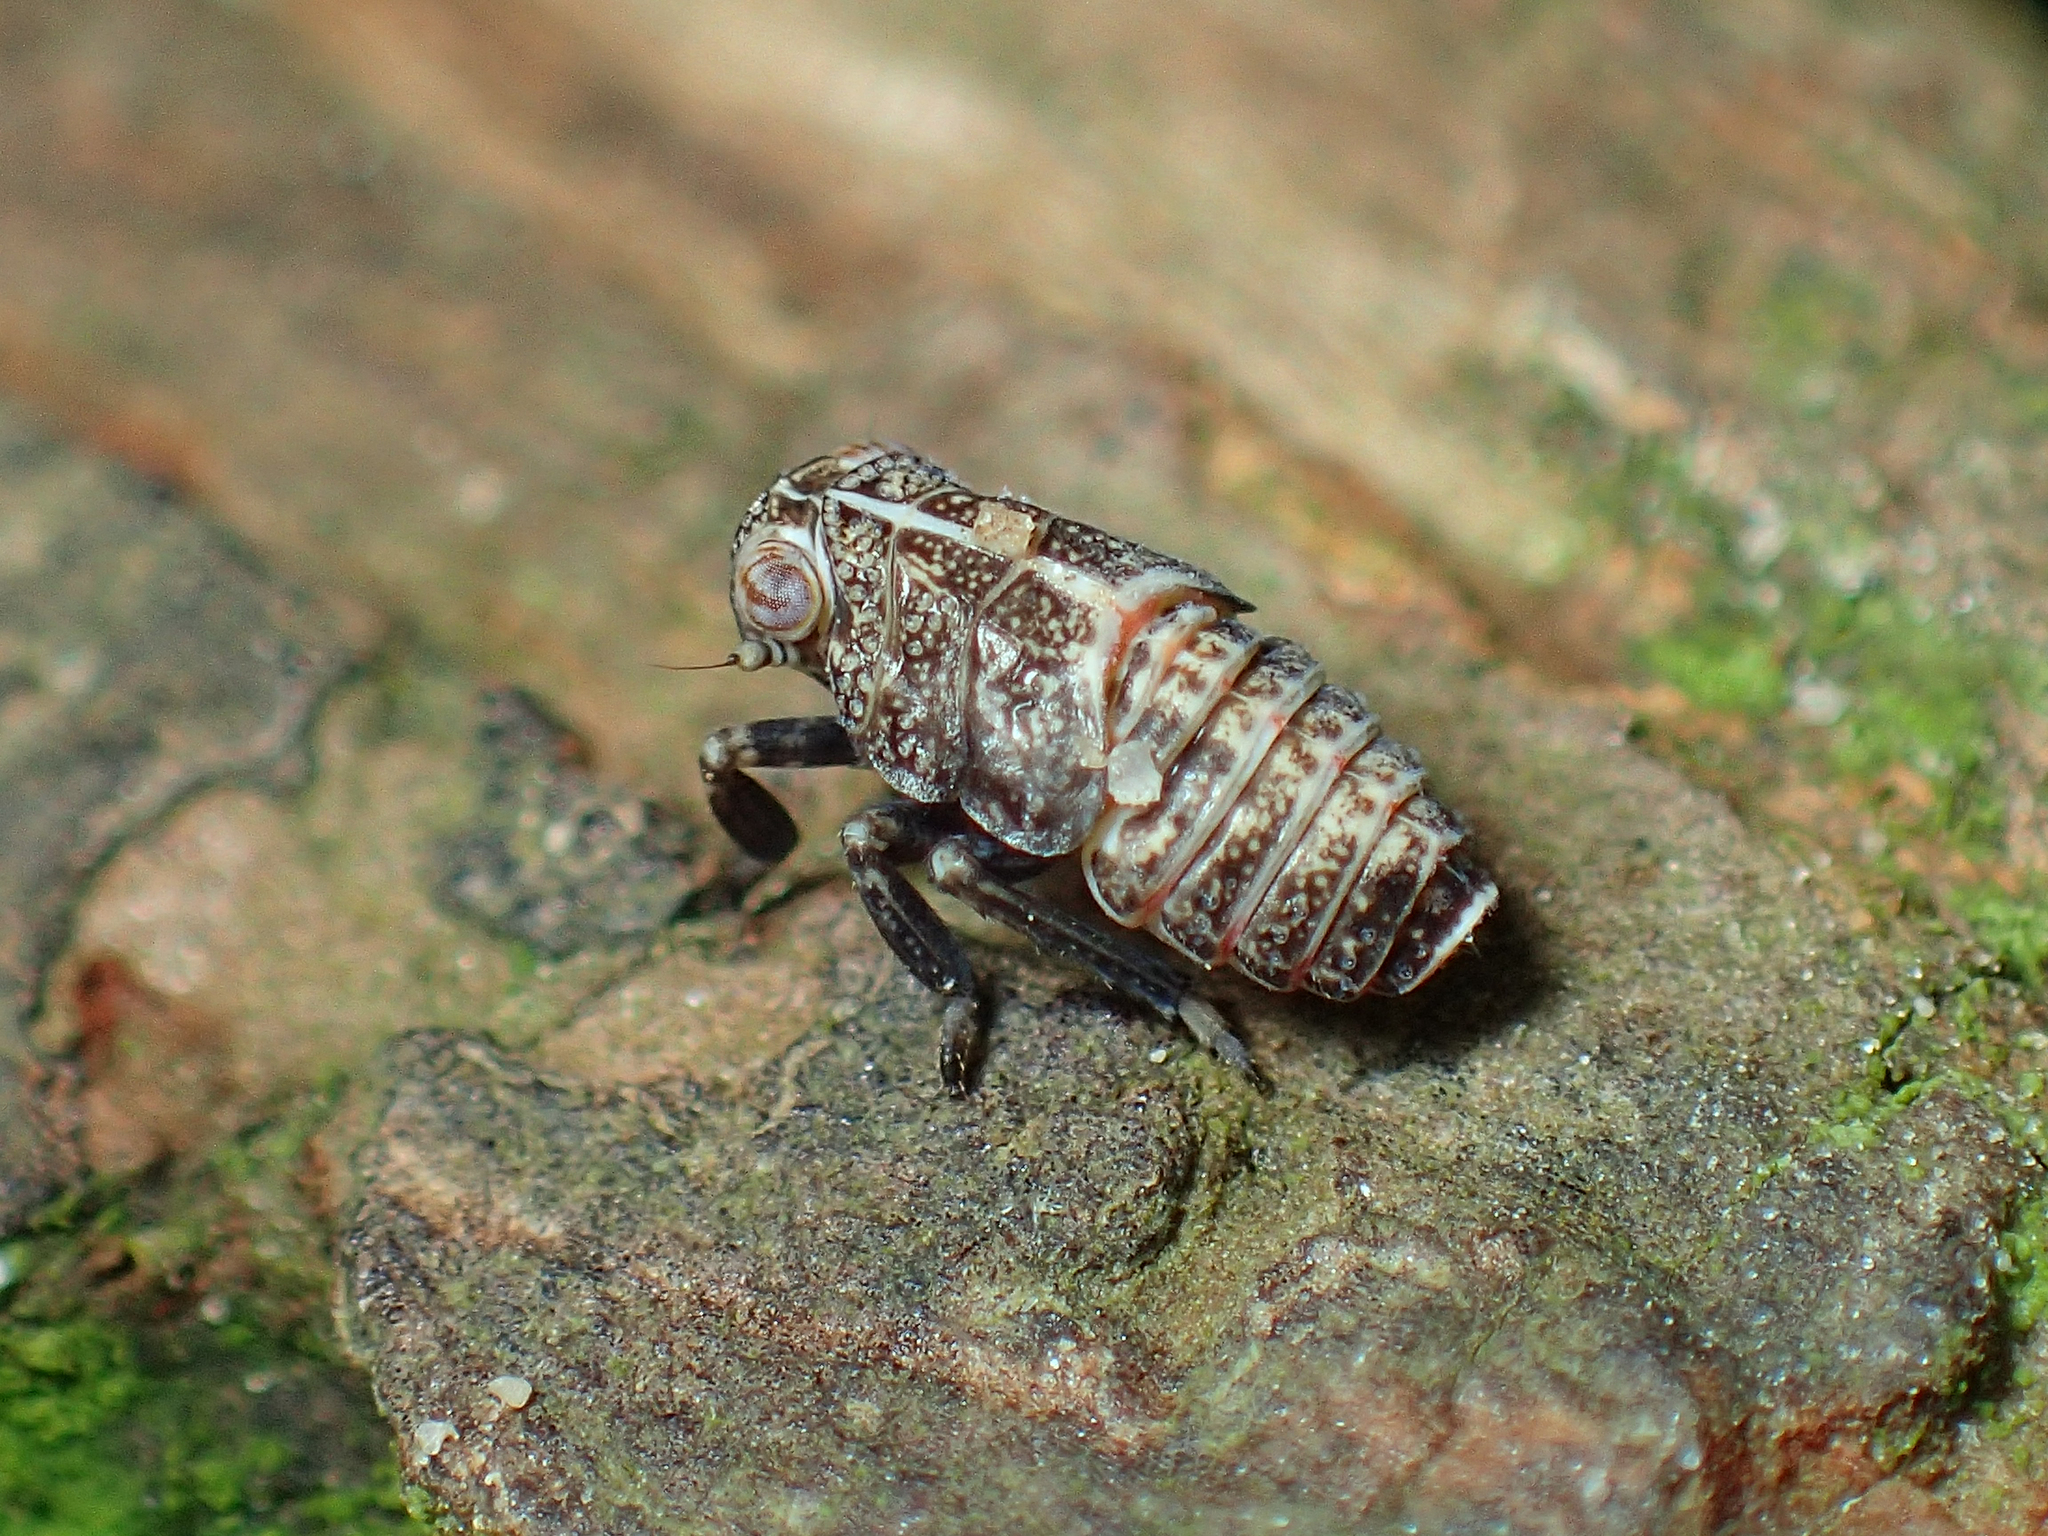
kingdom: Animalia
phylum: Arthropoda
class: Insecta
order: Hemiptera
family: Issidae
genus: Thionia
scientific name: Thionia elliptica
